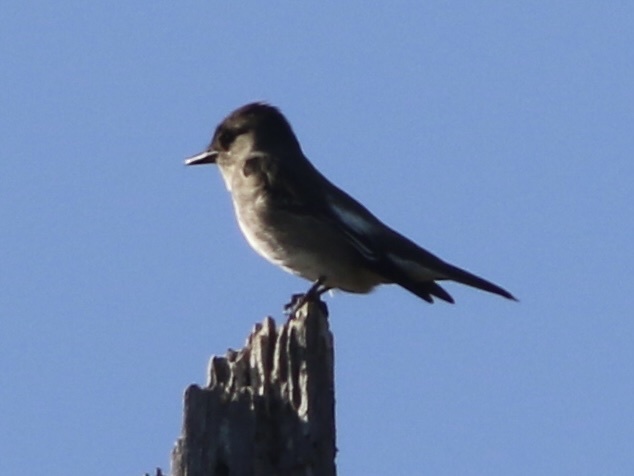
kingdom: Animalia
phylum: Chordata
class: Aves
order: Passeriformes
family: Tyrannidae
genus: Contopus
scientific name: Contopus cooperi
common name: Olive-sided flycatcher
